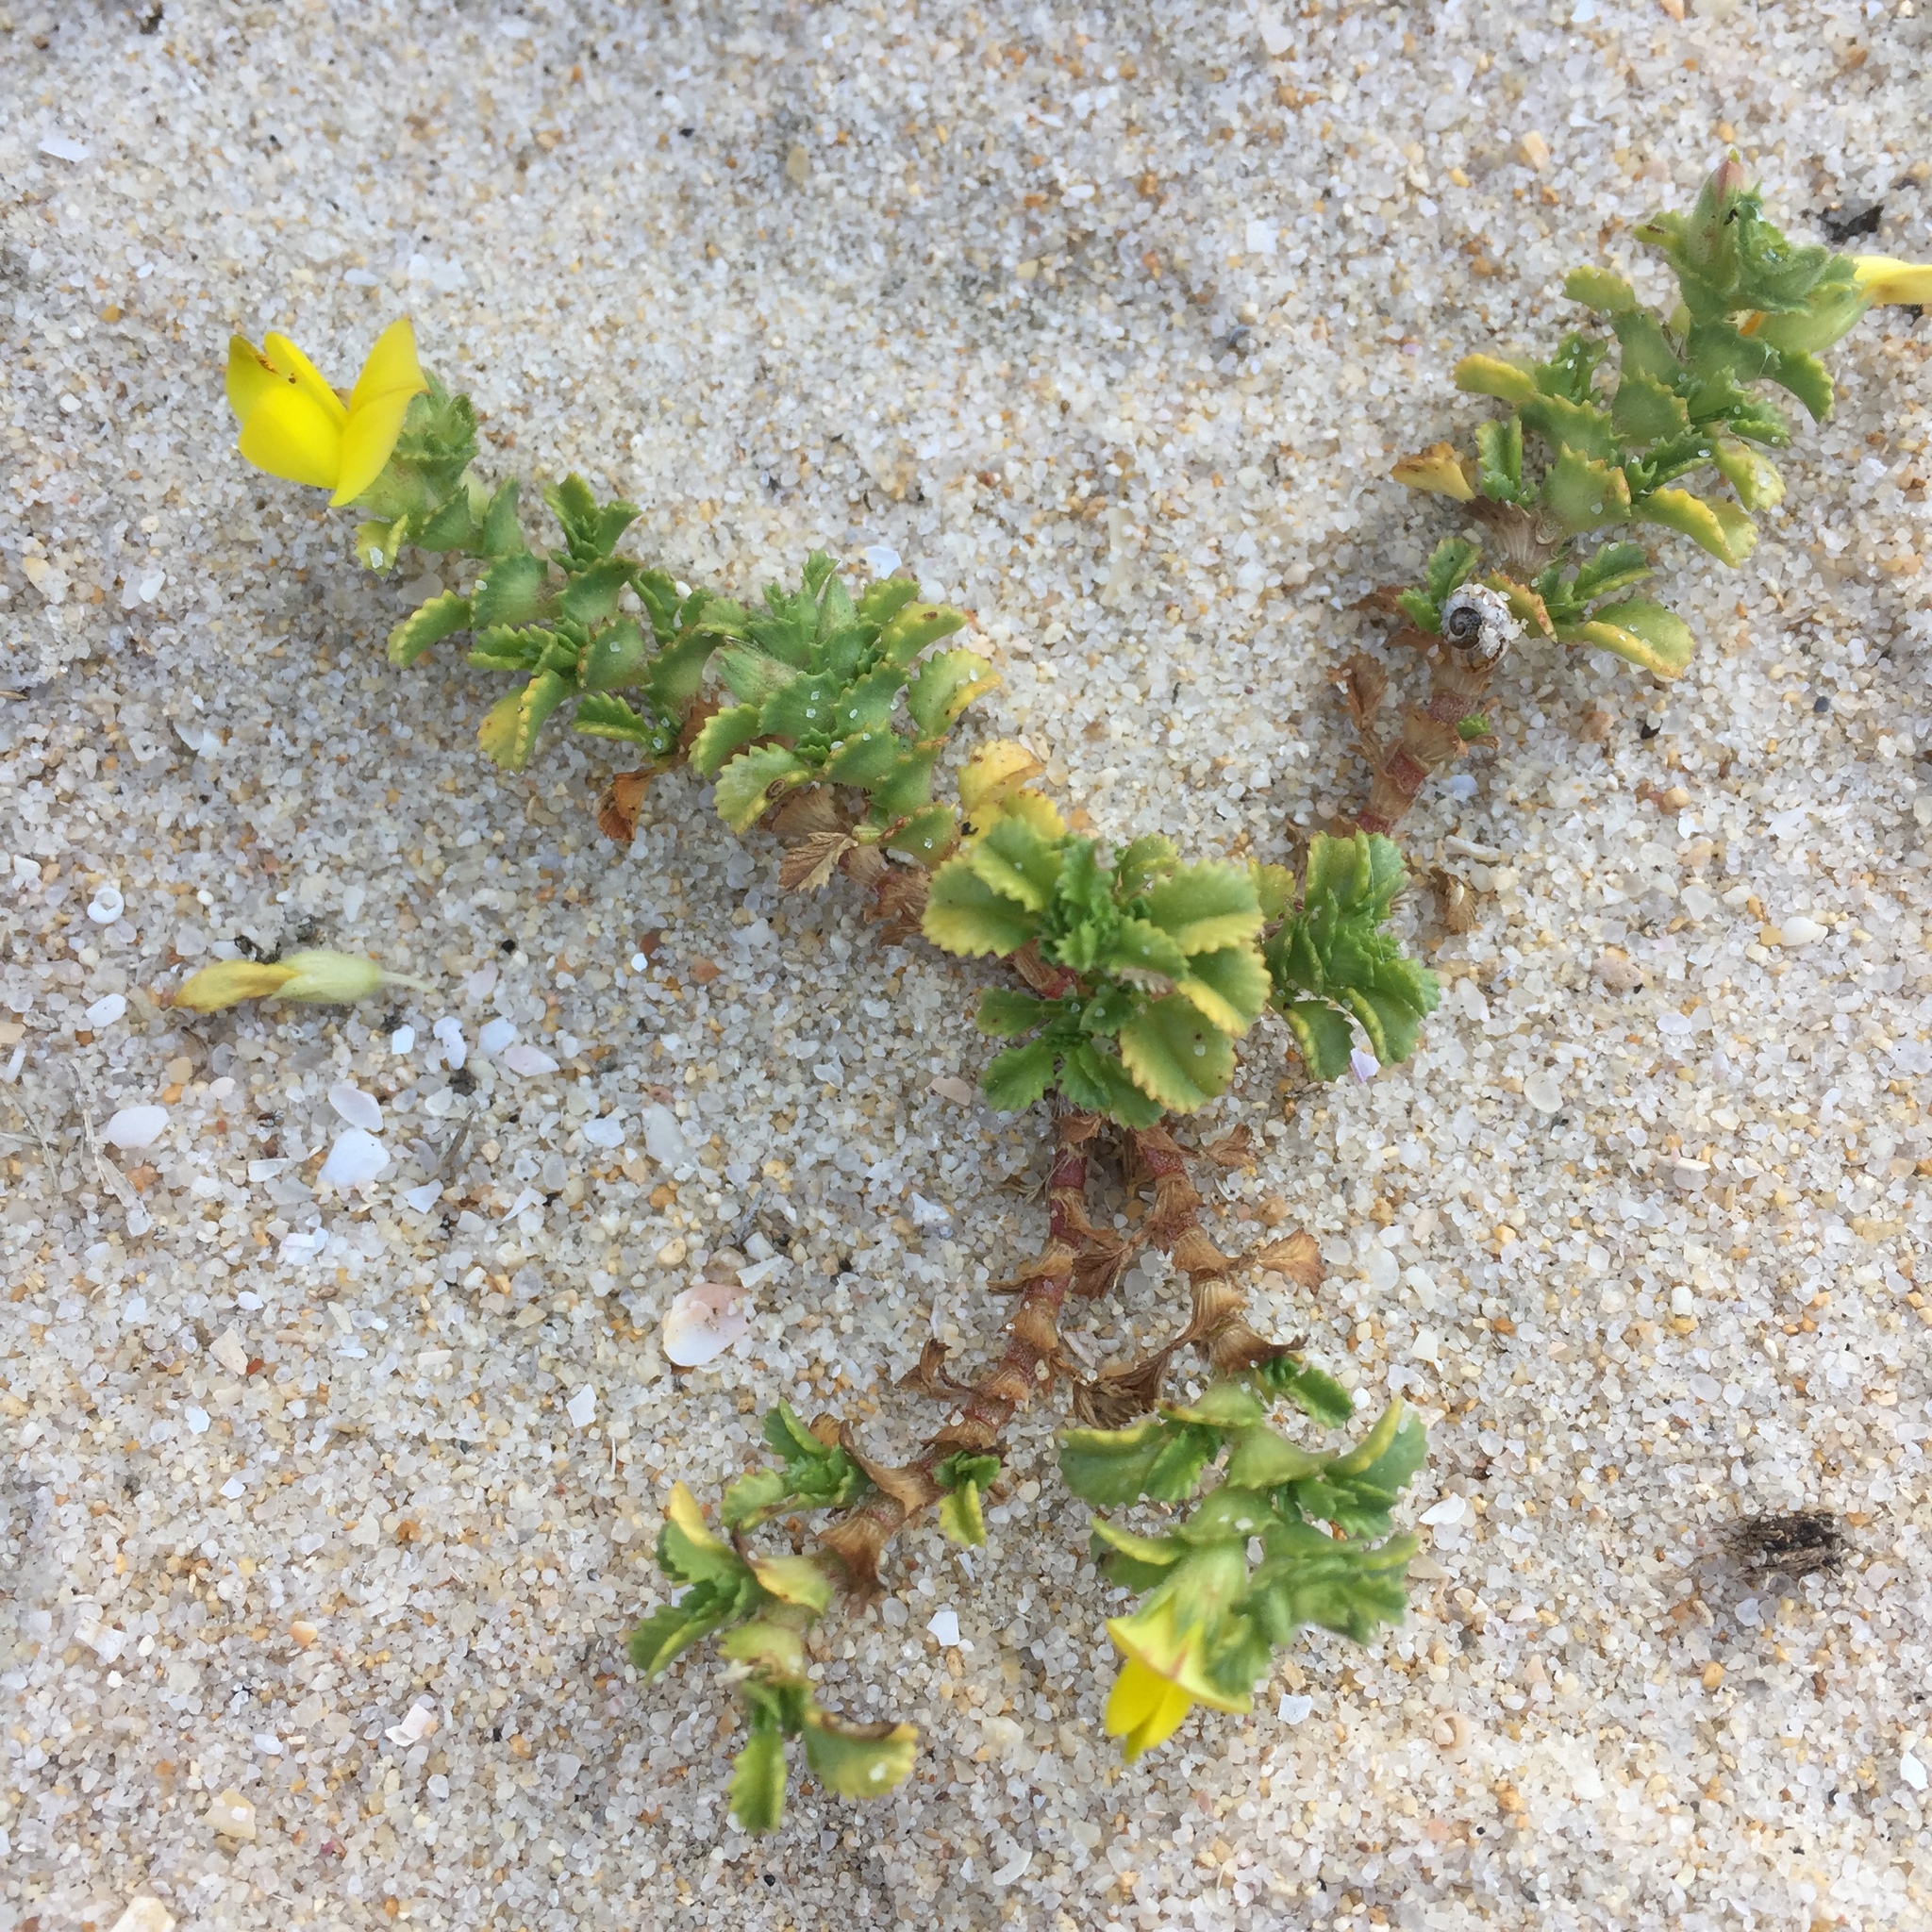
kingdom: Plantae
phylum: Tracheophyta
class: Magnoliopsida
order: Fabales
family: Fabaceae
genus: Ononis
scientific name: Ononis variegata
